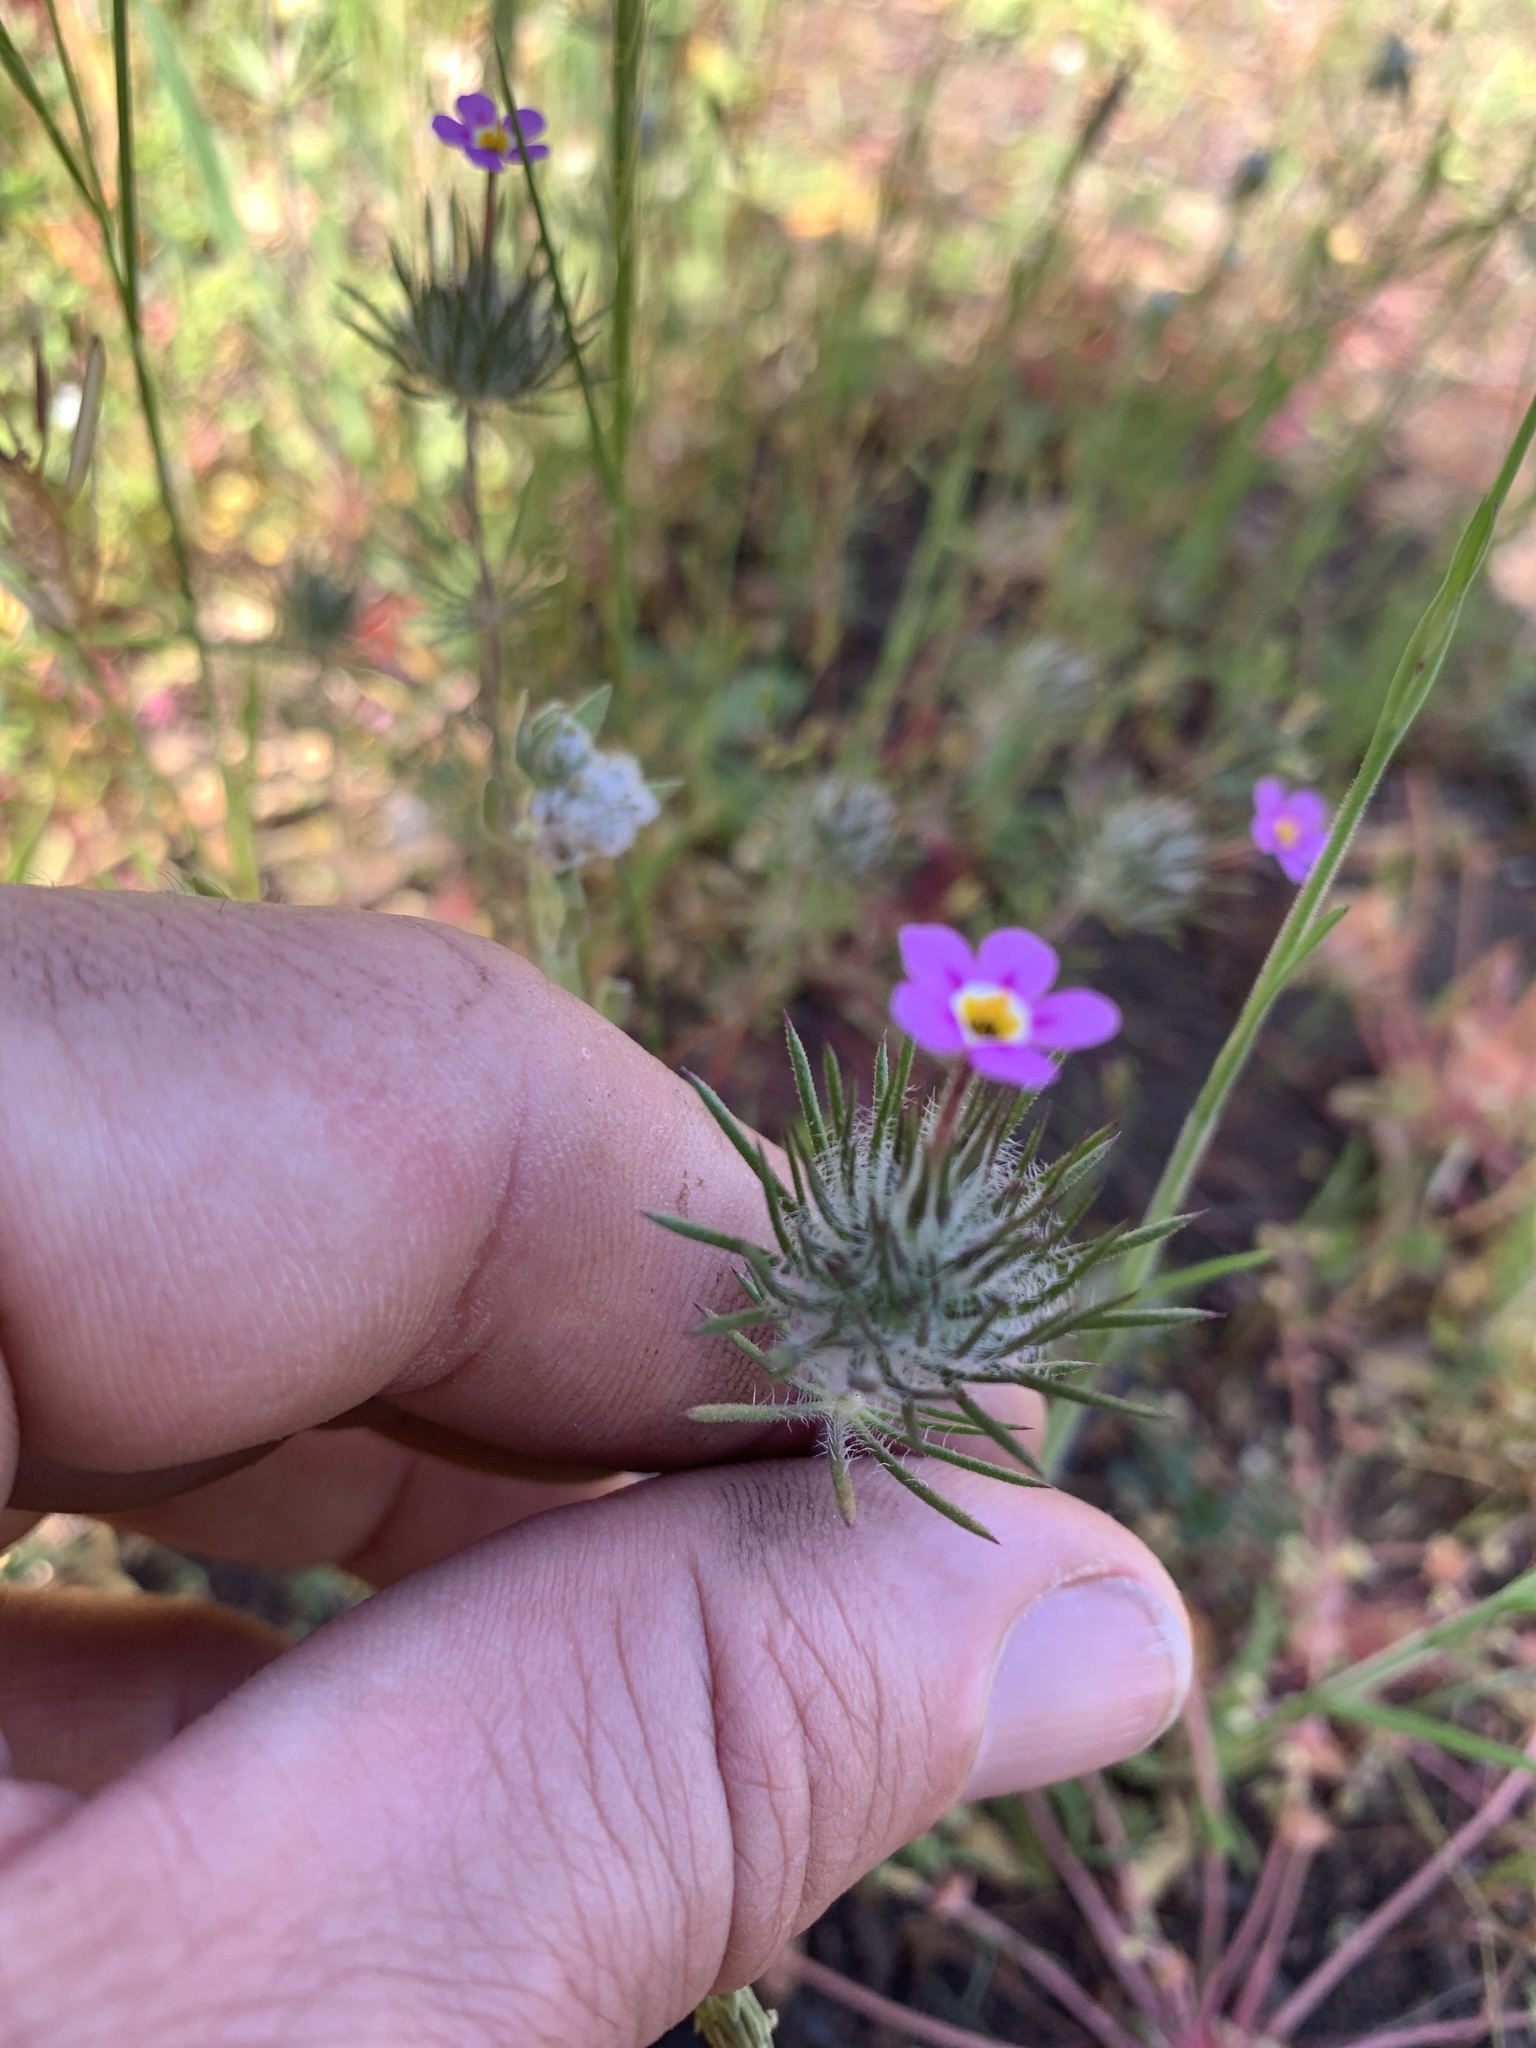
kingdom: Plantae
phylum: Tracheophyta
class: Magnoliopsida
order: Ericales
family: Polemoniaceae
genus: Leptosiphon
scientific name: Leptosiphon ciliatus
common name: Whiskerbrush
